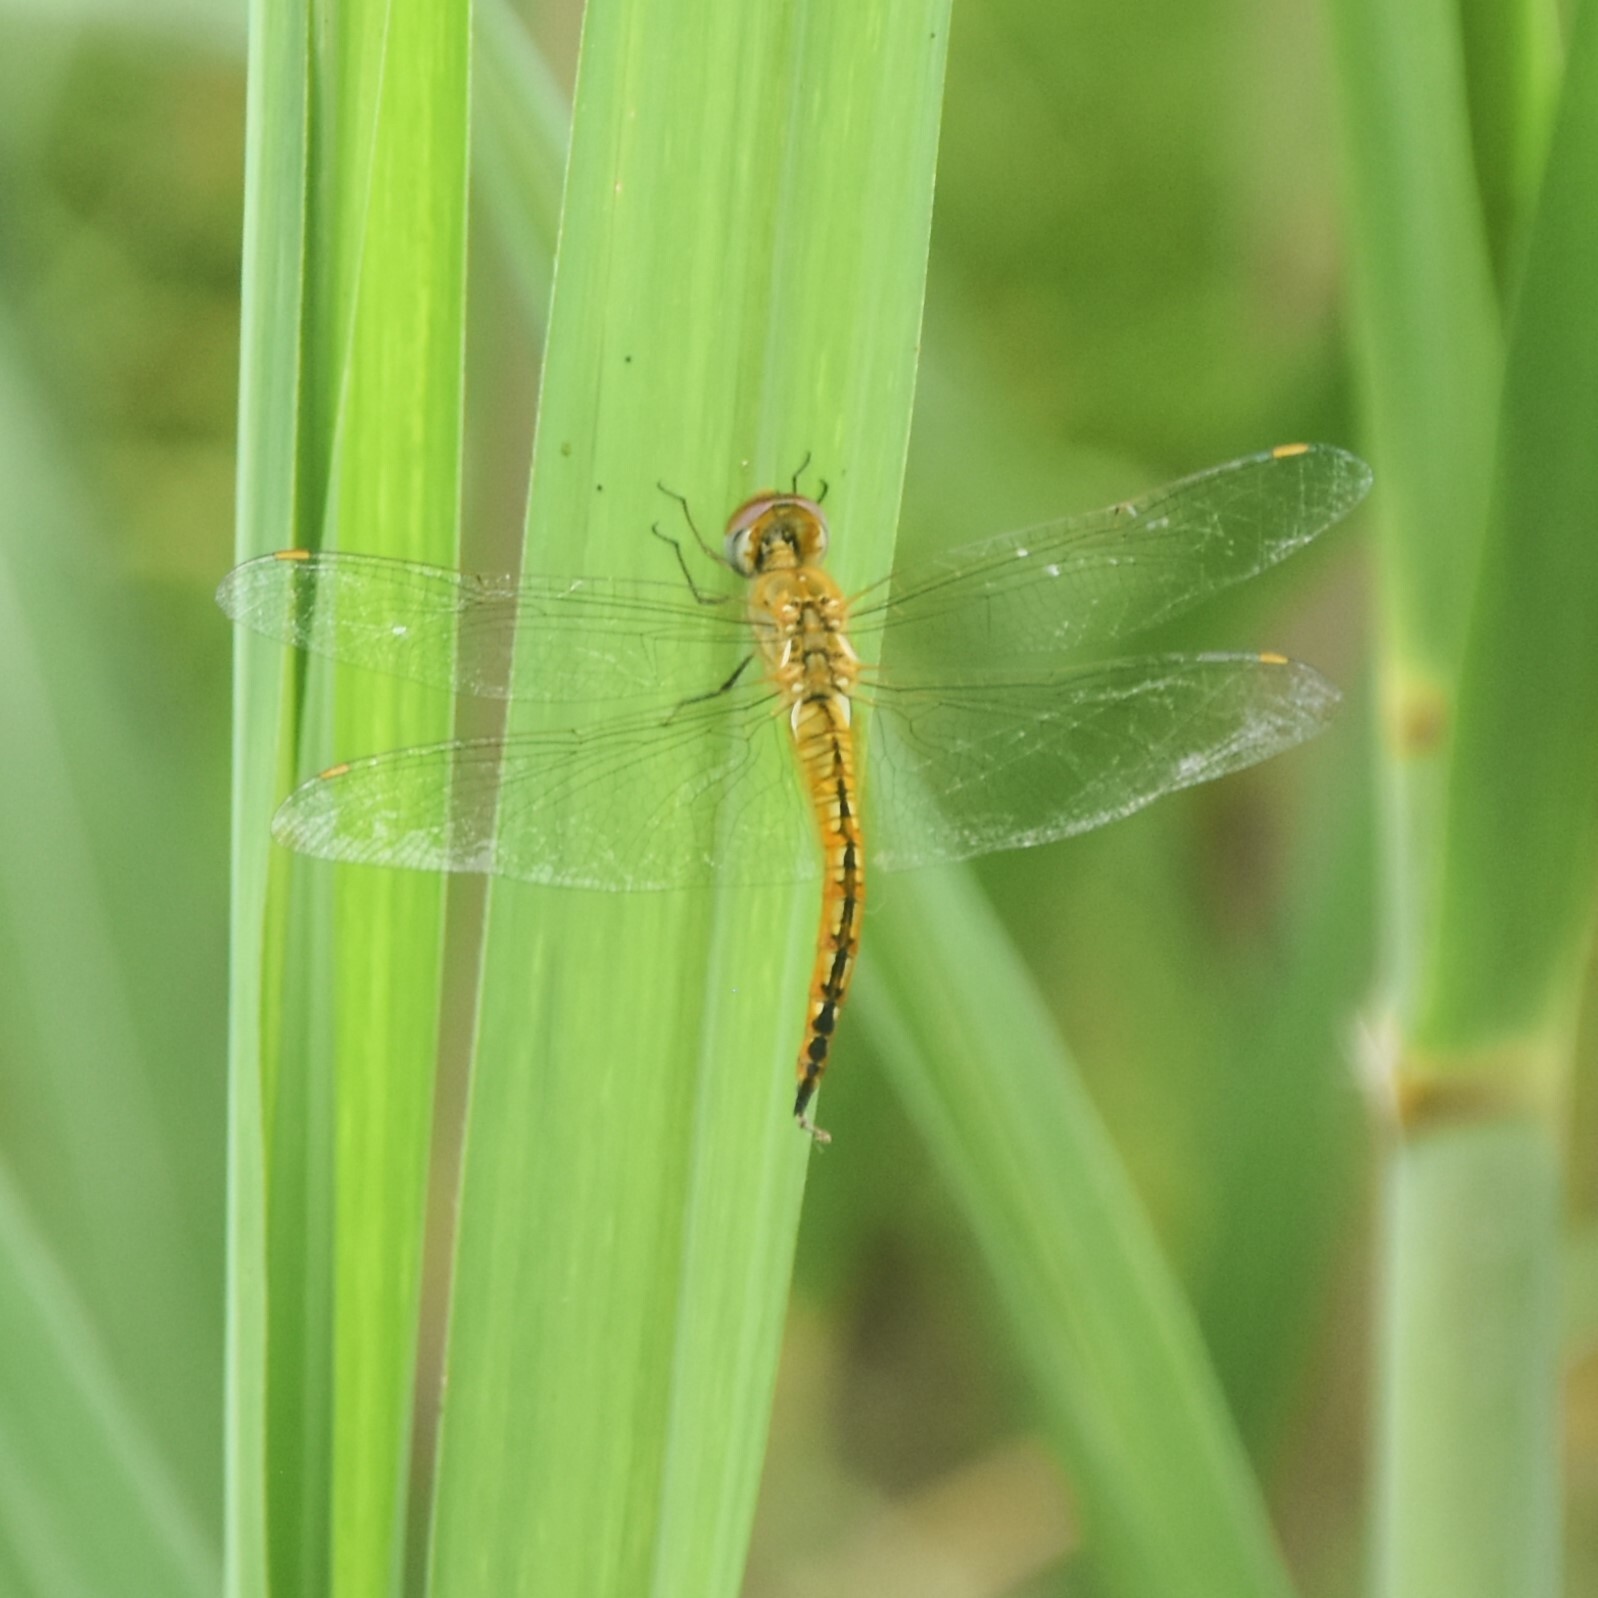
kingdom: Animalia
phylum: Arthropoda
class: Insecta
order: Odonata
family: Libellulidae
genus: Pantala
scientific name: Pantala flavescens
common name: Wandering glider
